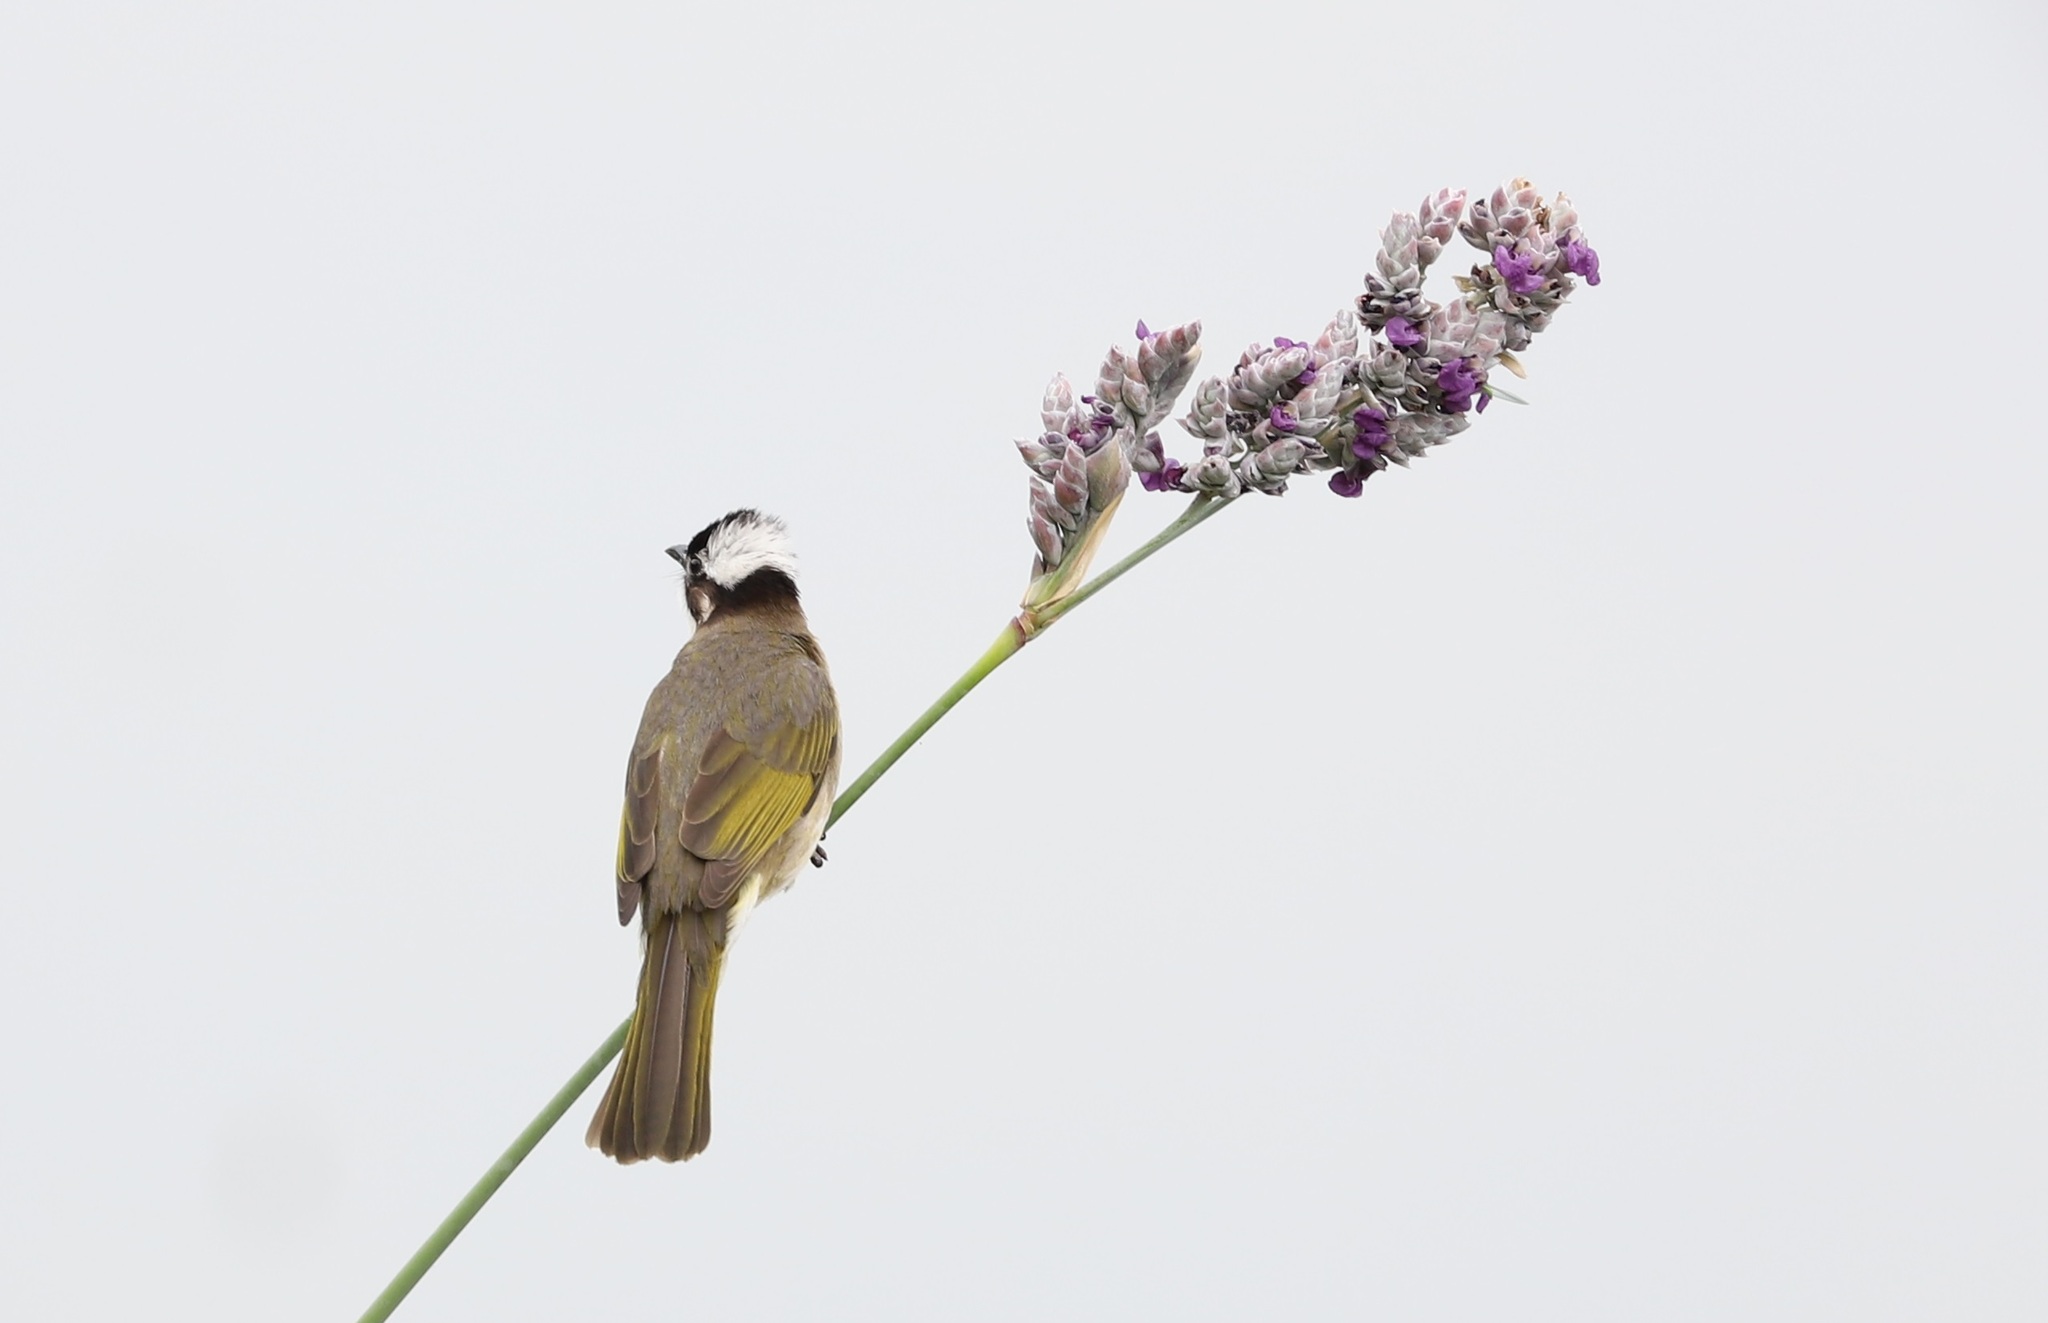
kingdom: Animalia
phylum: Chordata
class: Aves
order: Passeriformes
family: Pycnonotidae
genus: Pycnonotus
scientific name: Pycnonotus sinensis
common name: Light-vented bulbul
